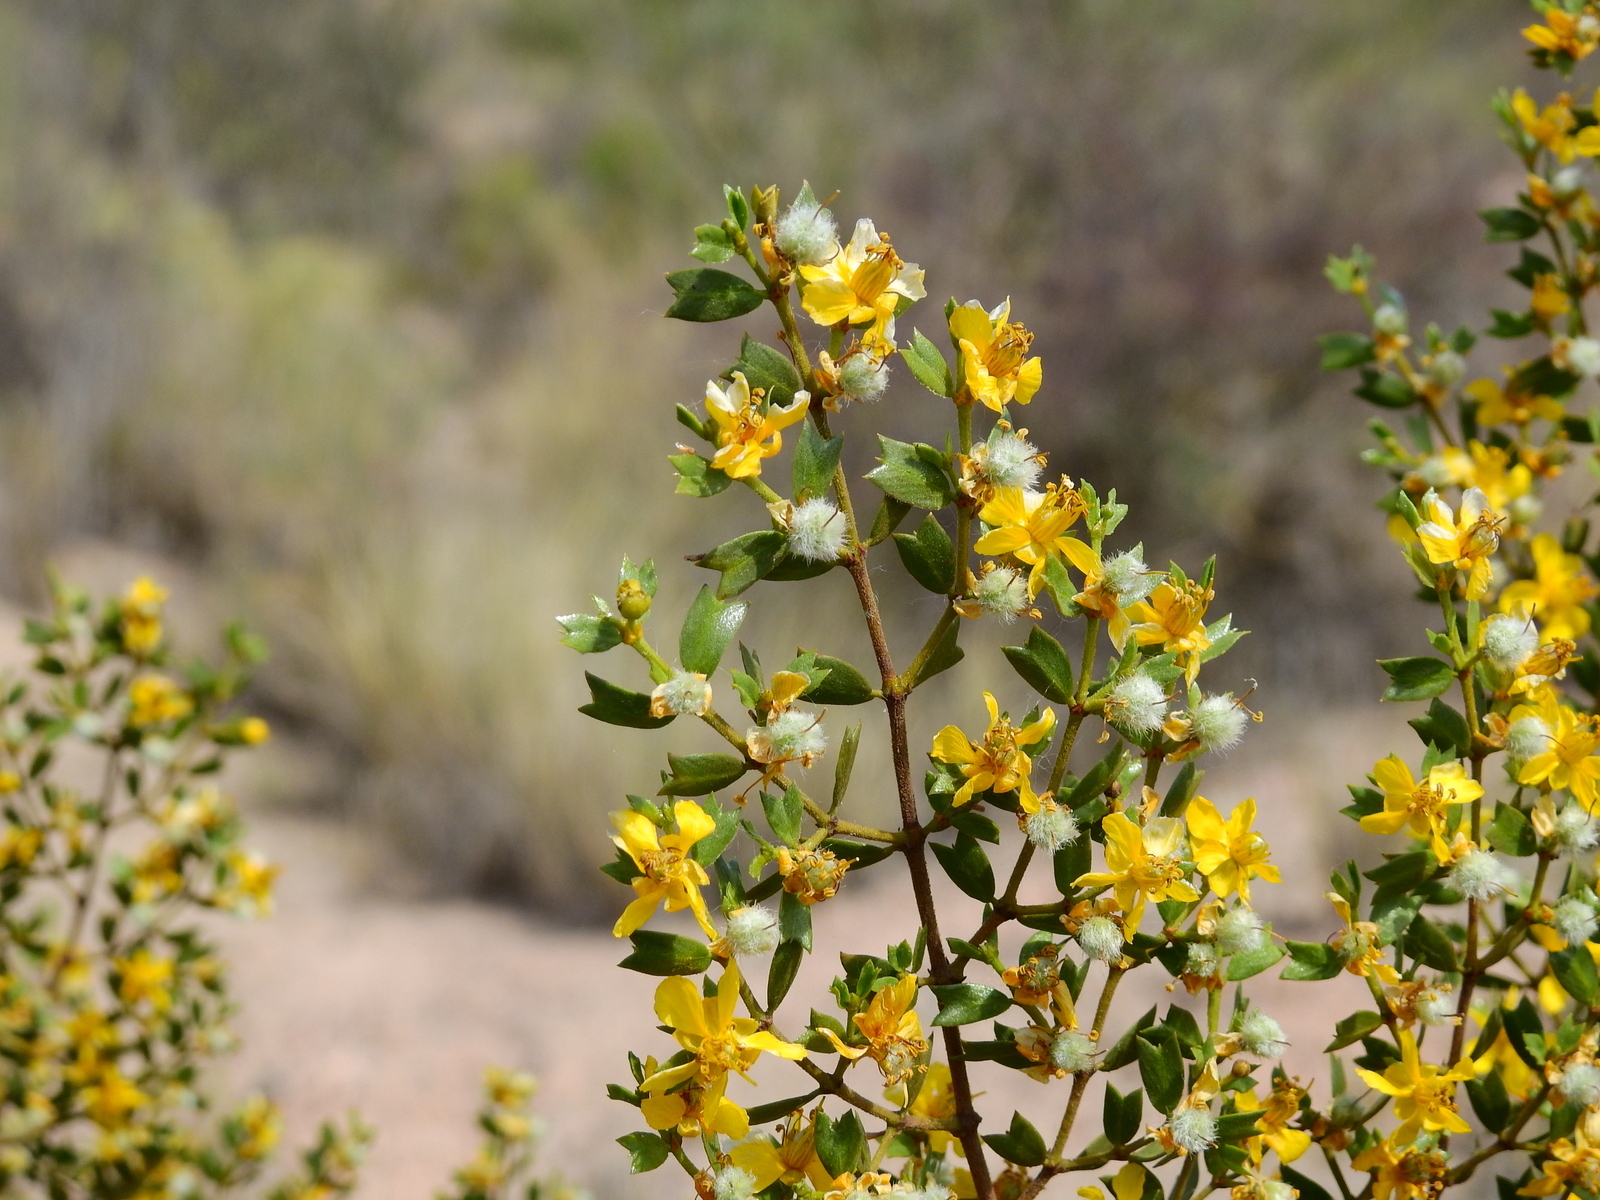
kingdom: Plantae
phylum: Tracheophyta
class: Magnoliopsida
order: Zygophyllales
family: Zygophyllaceae
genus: Larrea
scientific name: Larrea cuneifolia
